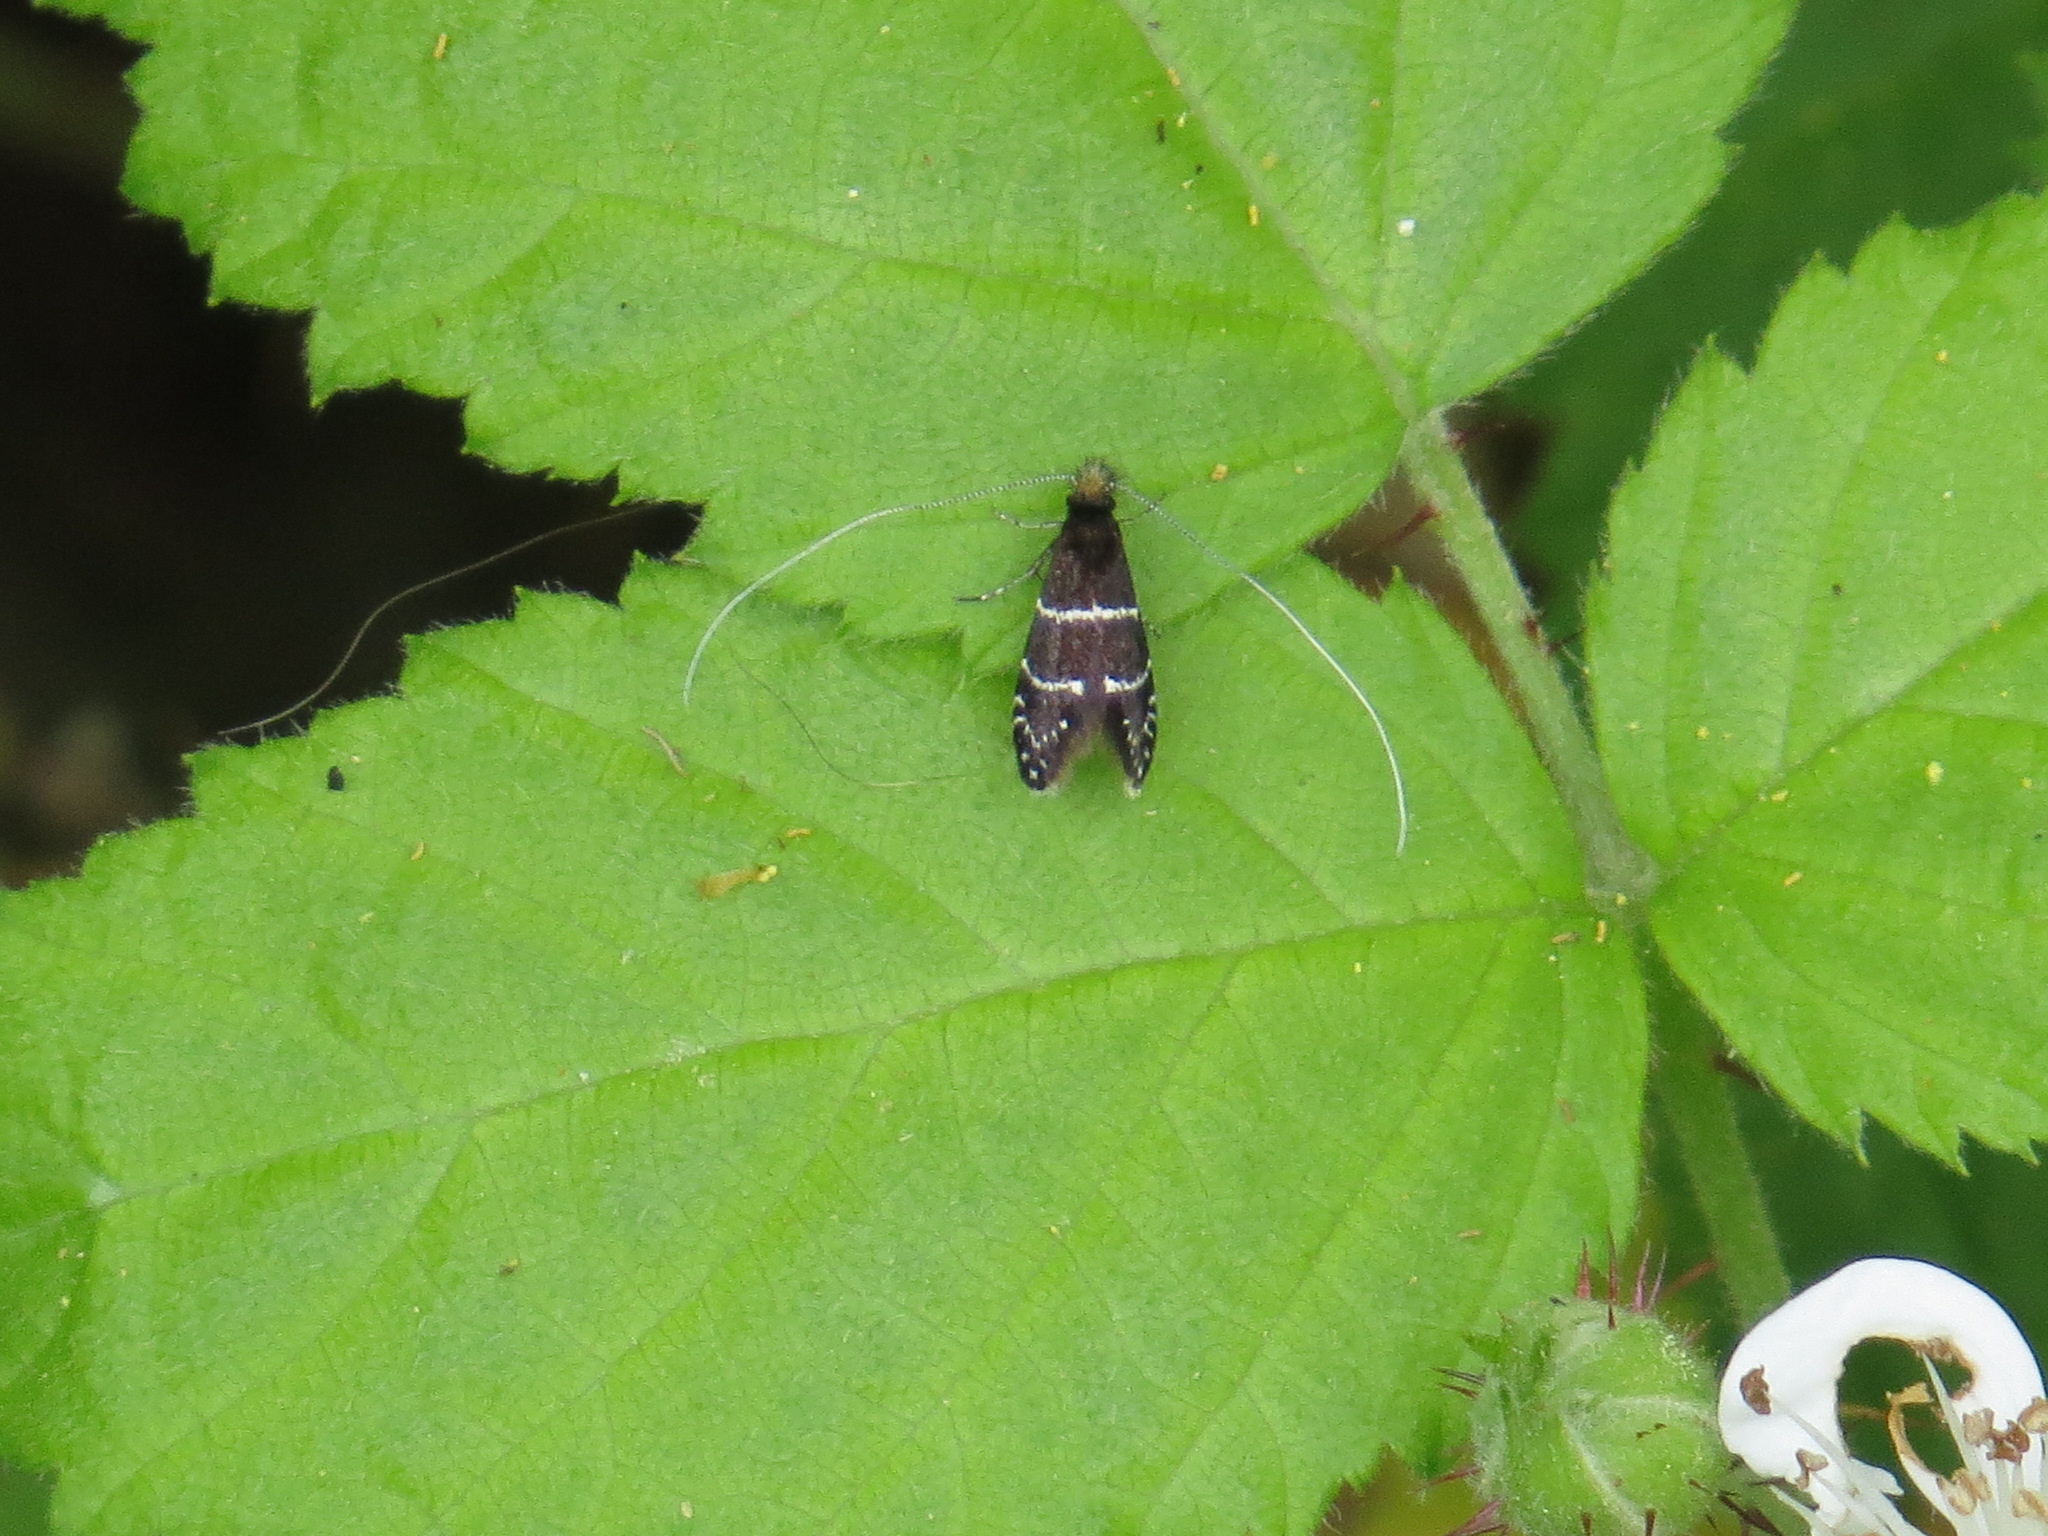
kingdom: Animalia
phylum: Arthropoda
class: Insecta
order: Lepidoptera
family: Adelidae
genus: Adela
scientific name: Adela septentrionella
